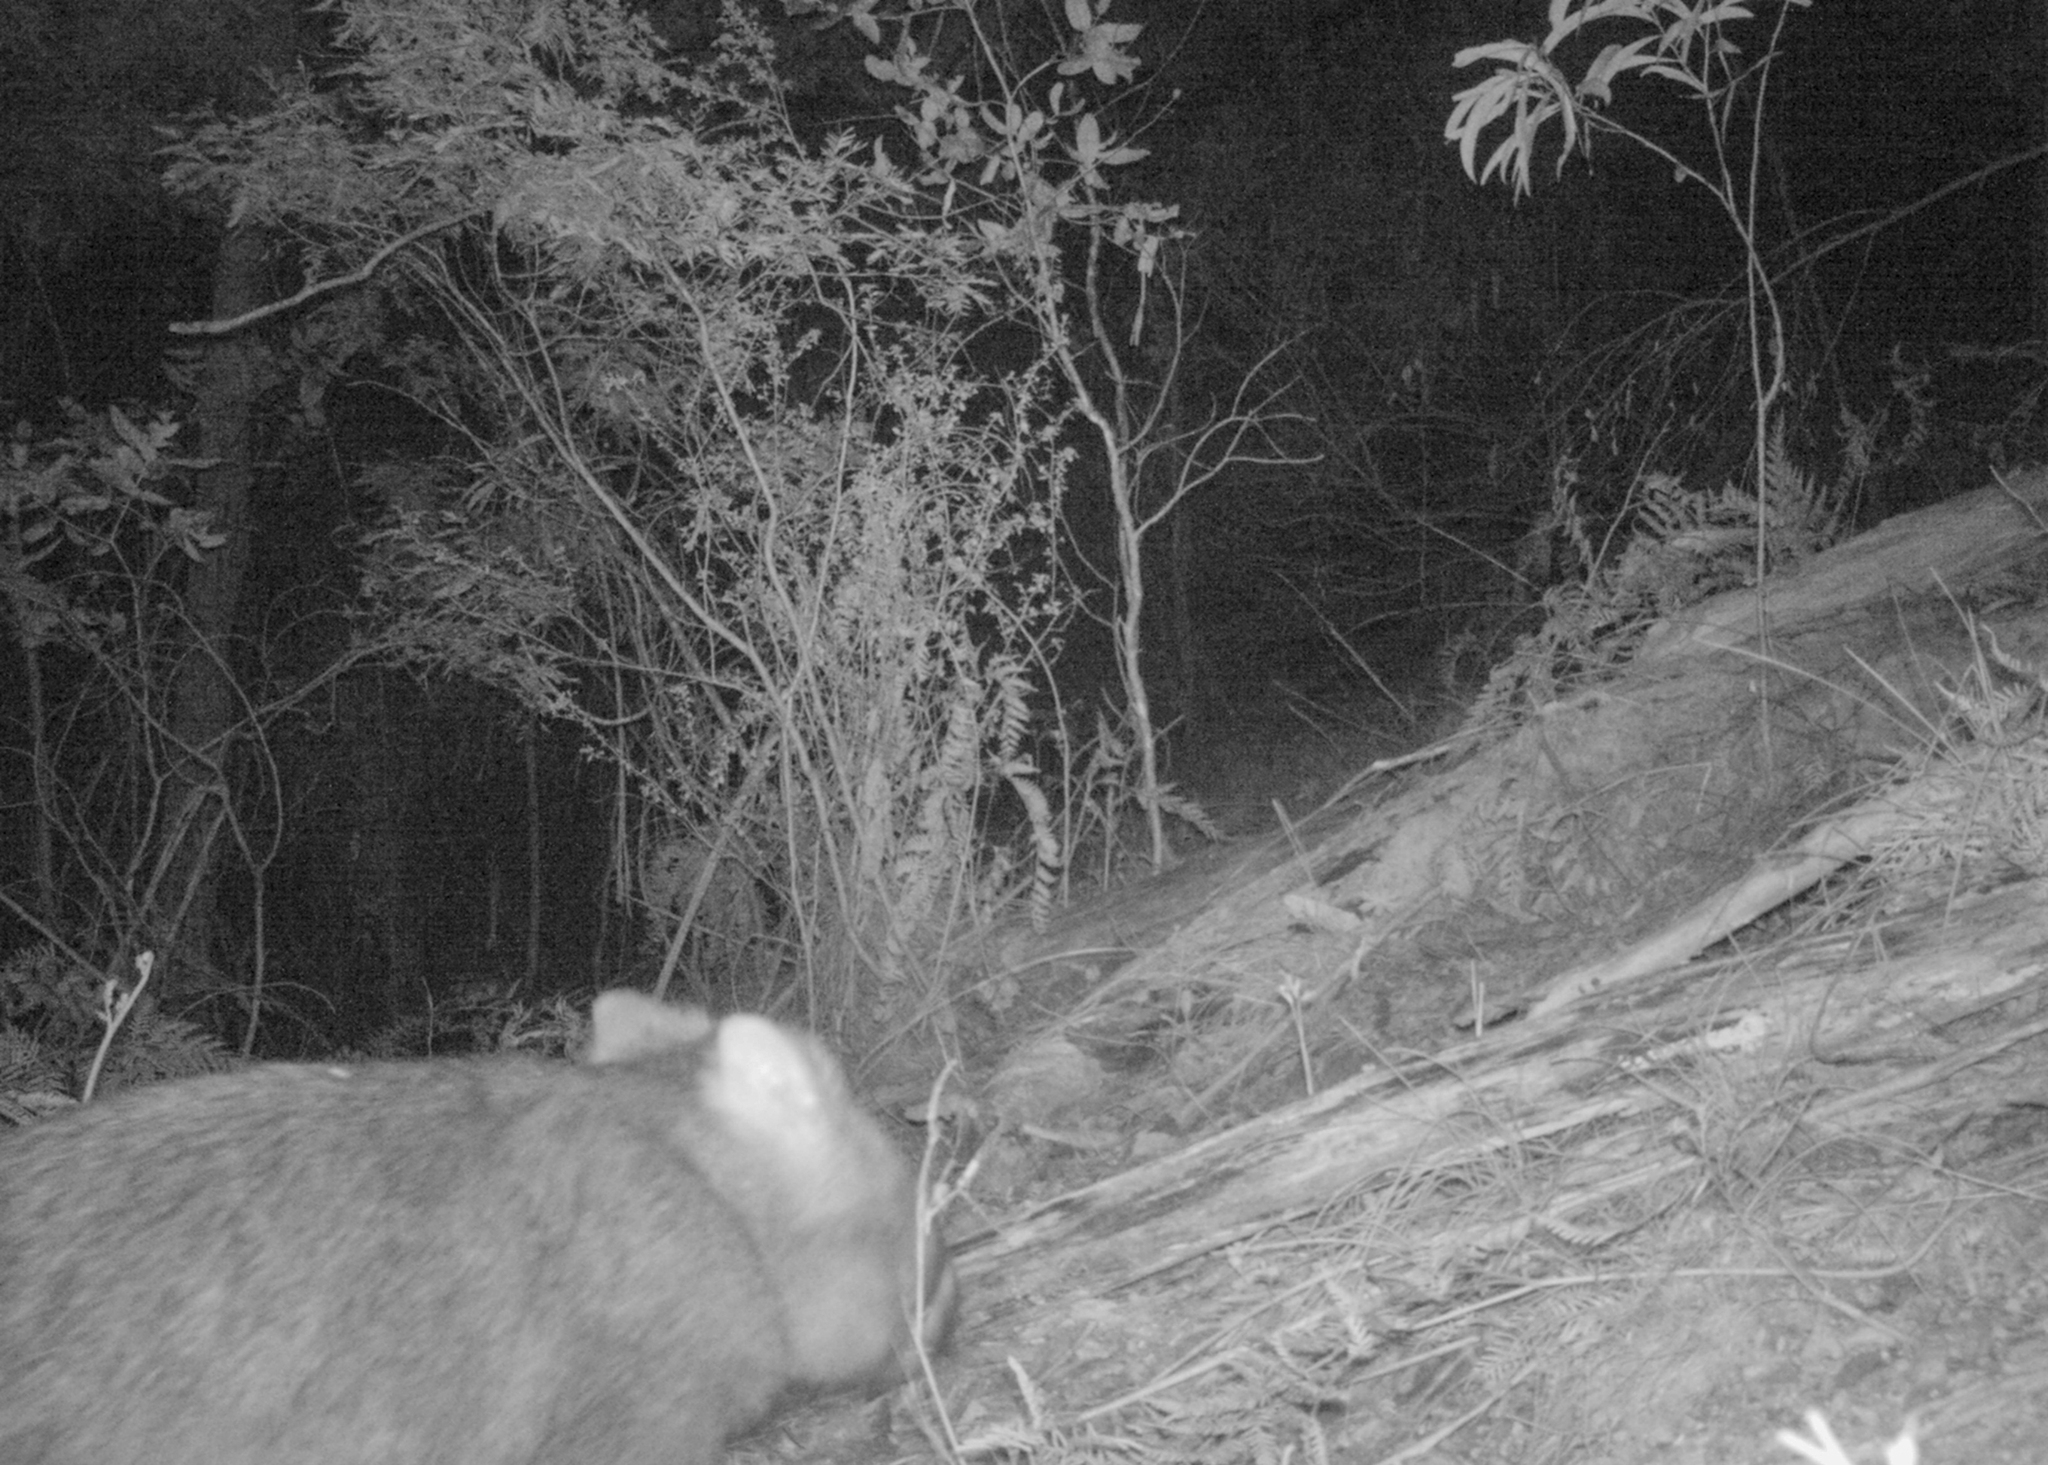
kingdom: Animalia
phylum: Chordata
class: Mammalia
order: Diprotodontia
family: Vombatidae
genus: Vombatus
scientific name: Vombatus ursinus
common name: Common wombat
